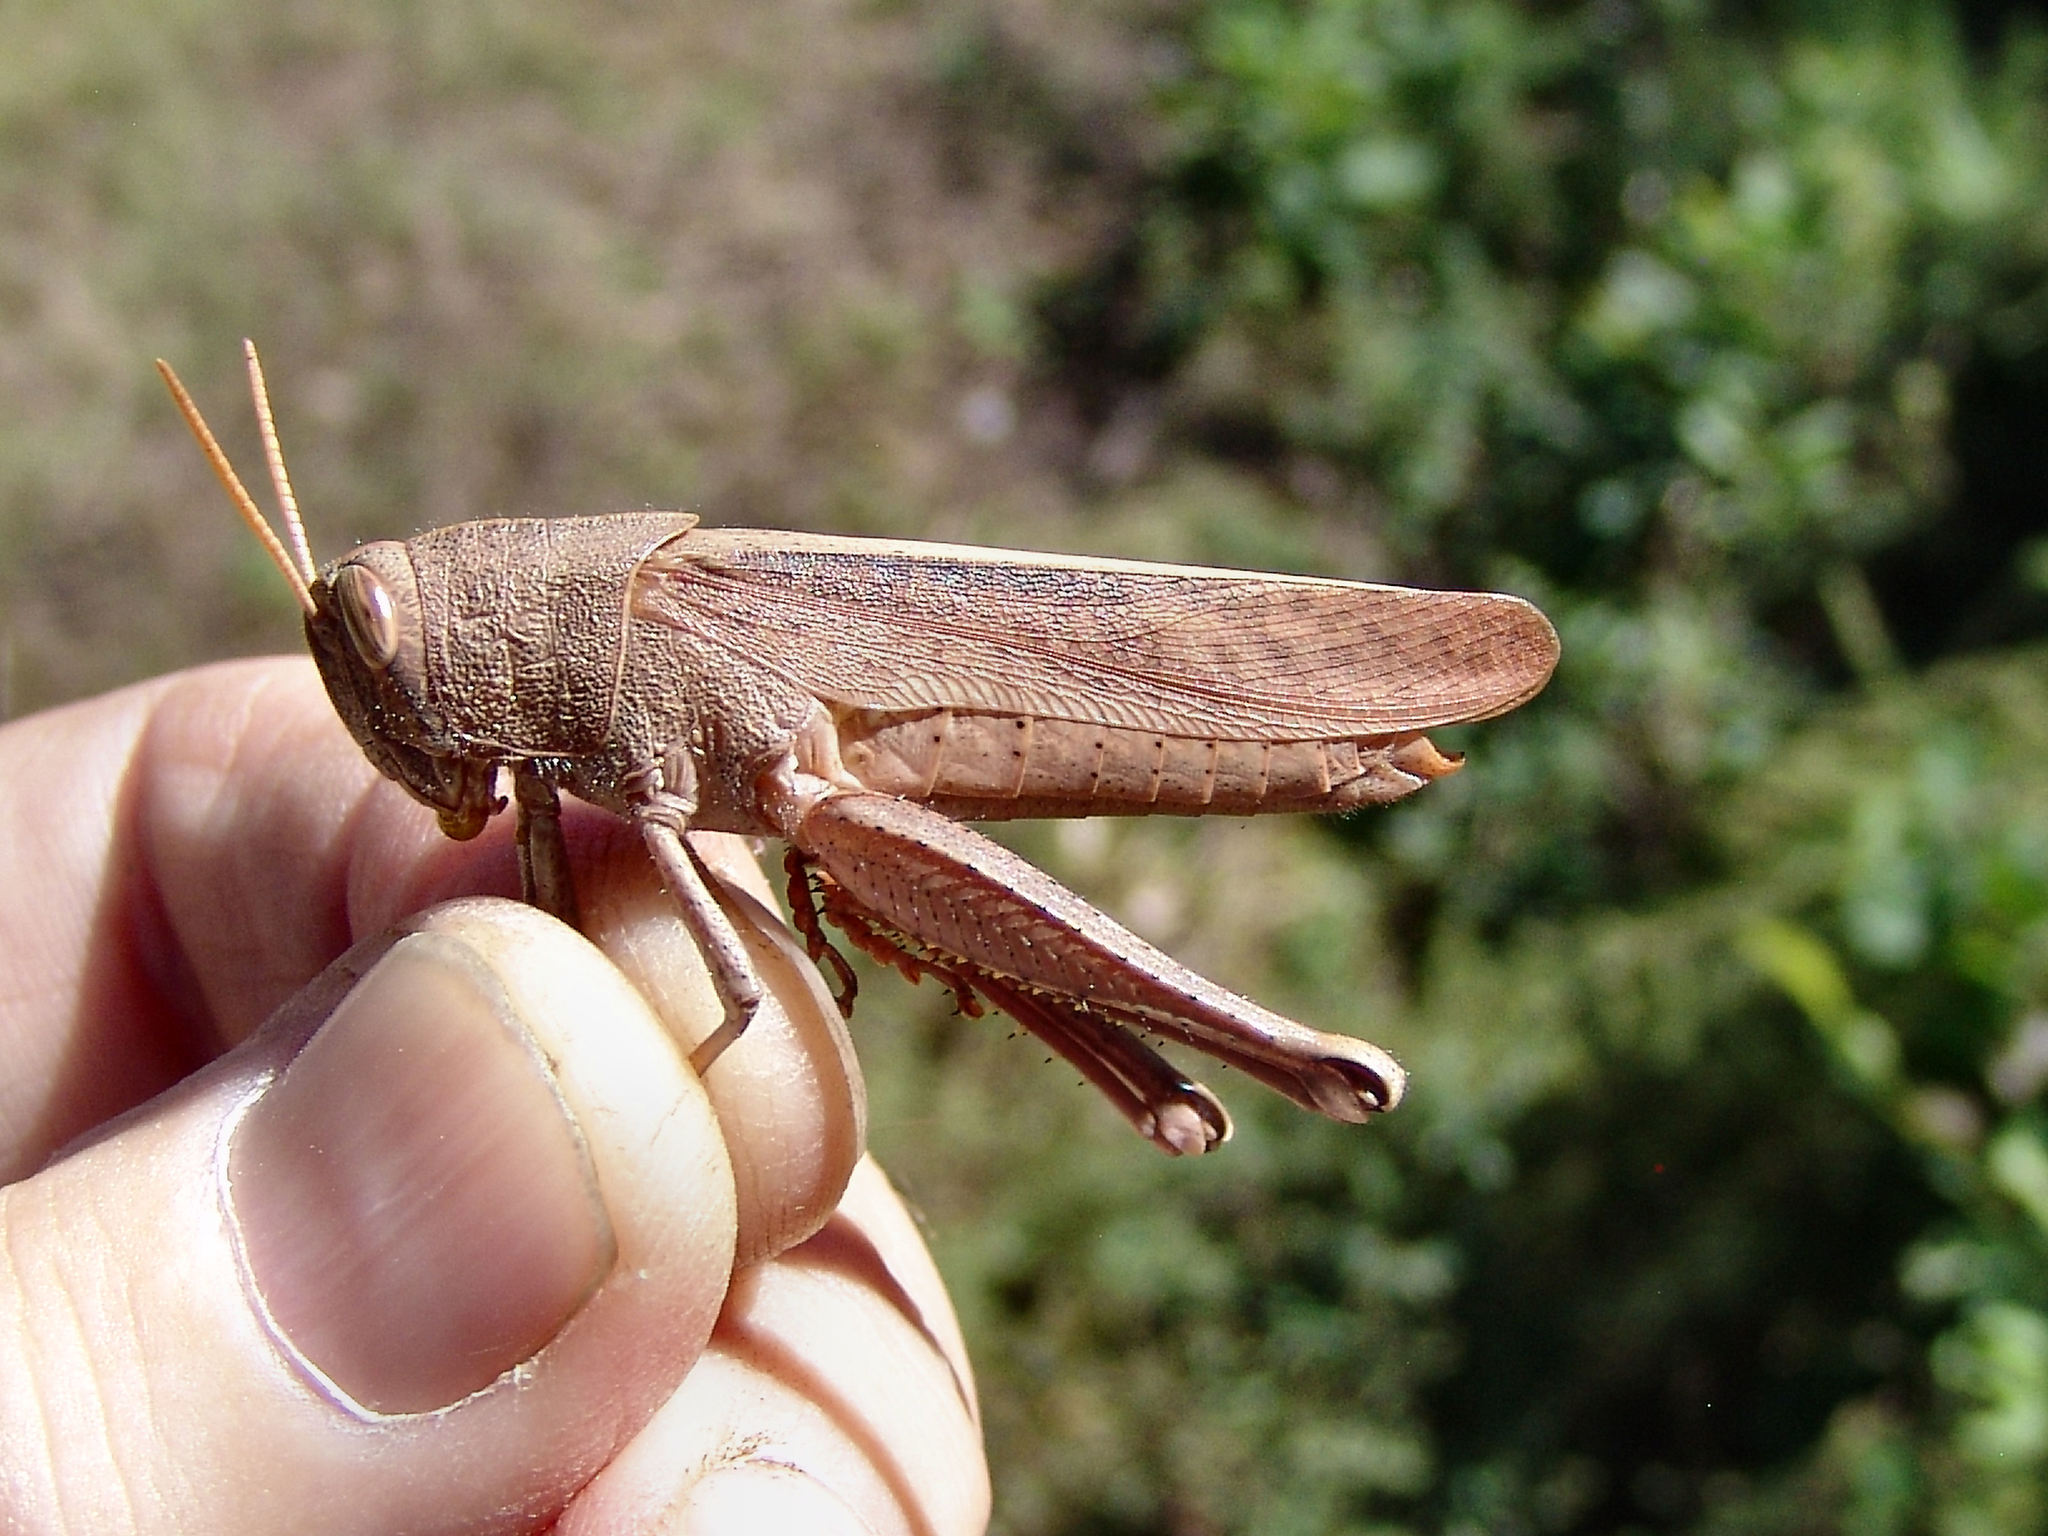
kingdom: Animalia
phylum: Arthropoda
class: Insecta
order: Orthoptera
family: Acrididae
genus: Schistocerca
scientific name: Schistocerca damnifica
